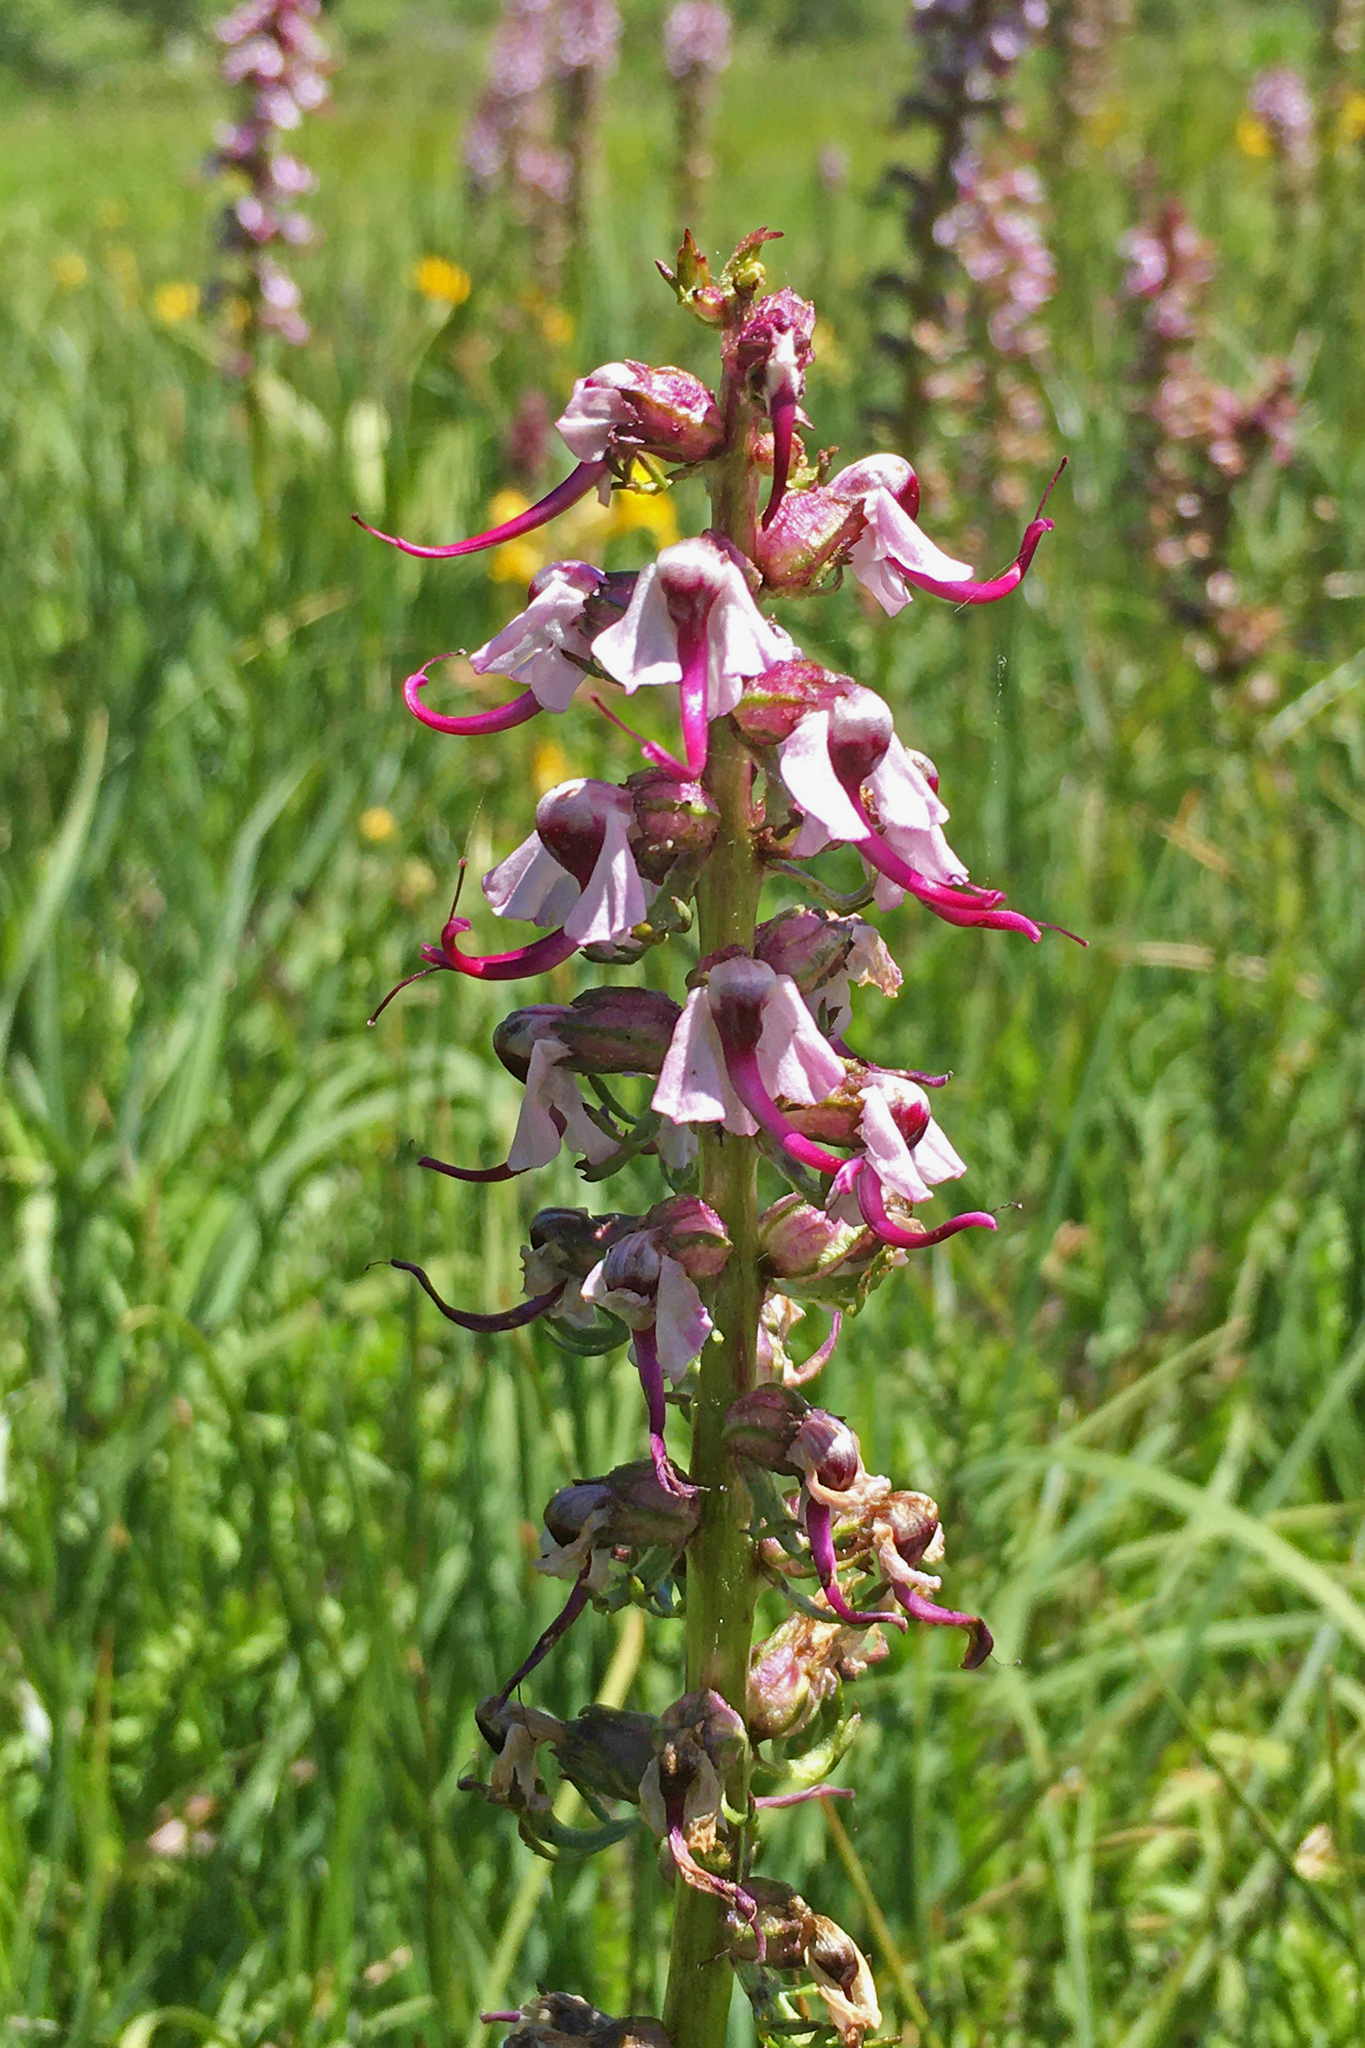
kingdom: Plantae
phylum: Tracheophyta
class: Magnoliopsida
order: Lamiales
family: Orobanchaceae
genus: Pedicularis
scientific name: Pedicularis groenlandica
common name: Elephant's-head
